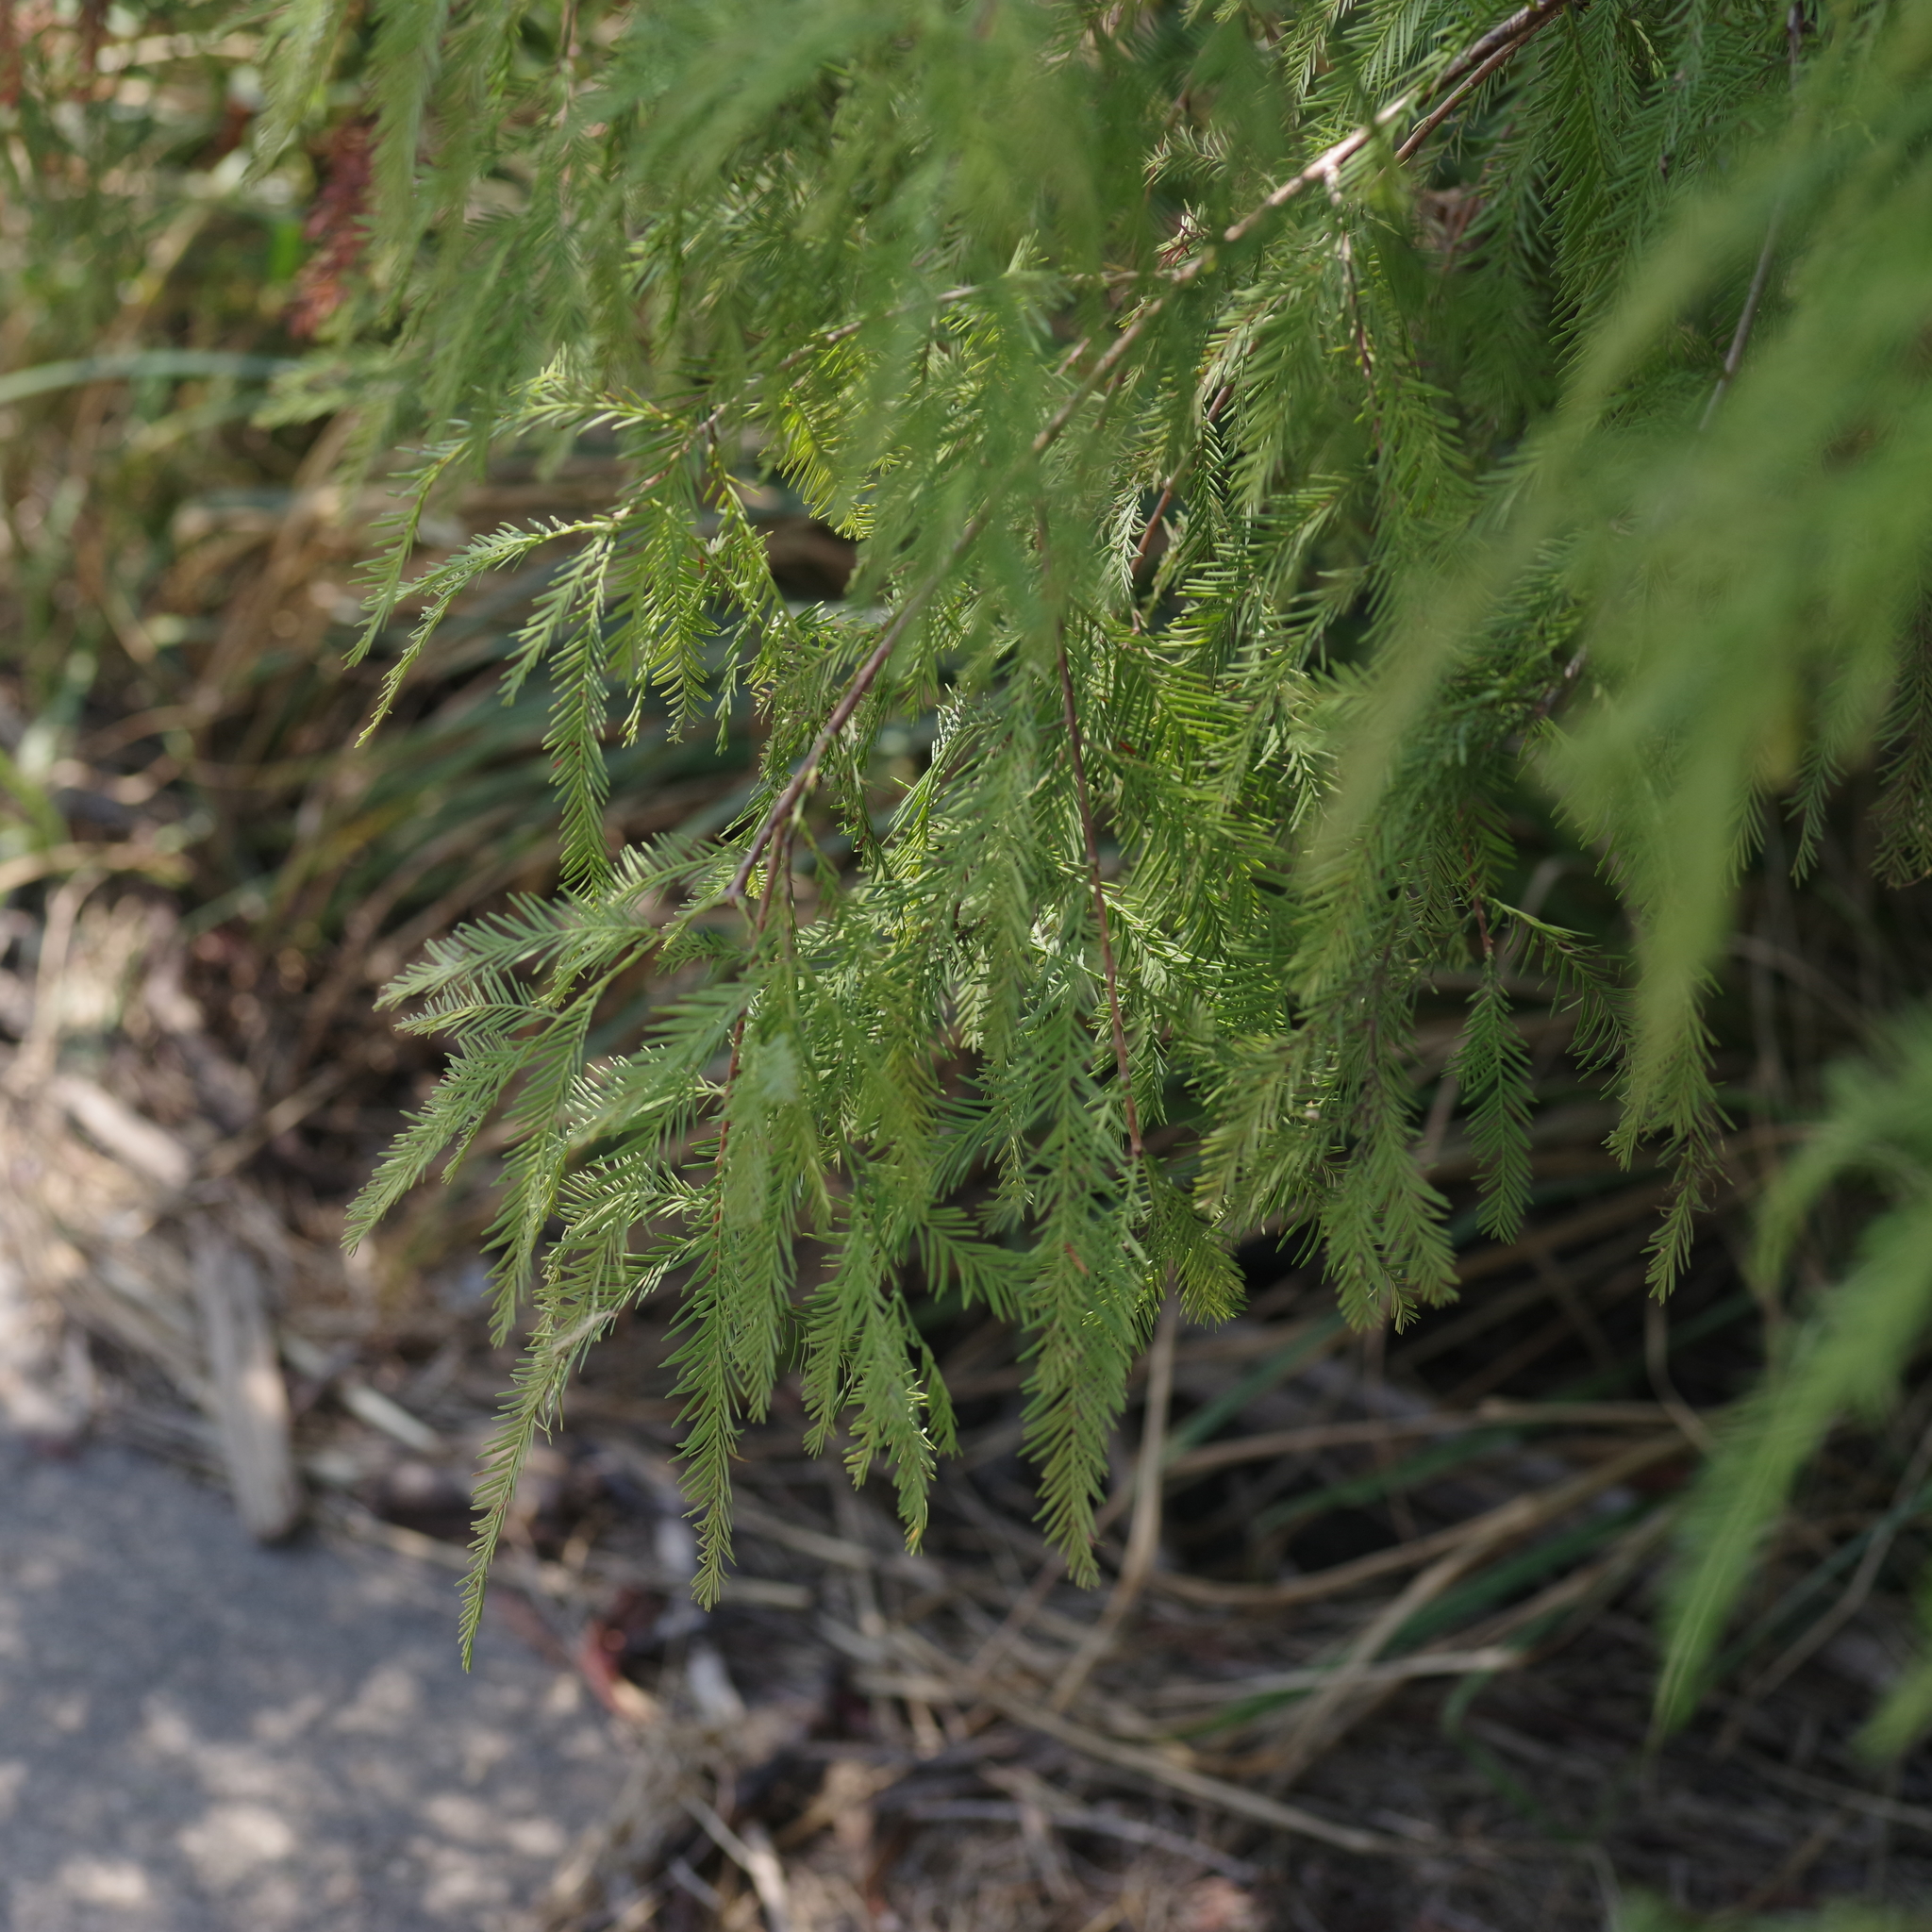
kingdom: Plantae
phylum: Tracheophyta
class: Pinopsida
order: Pinales
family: Cupressaceae
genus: Taxodium
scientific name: Taxodium distichum
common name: Bald cypress
